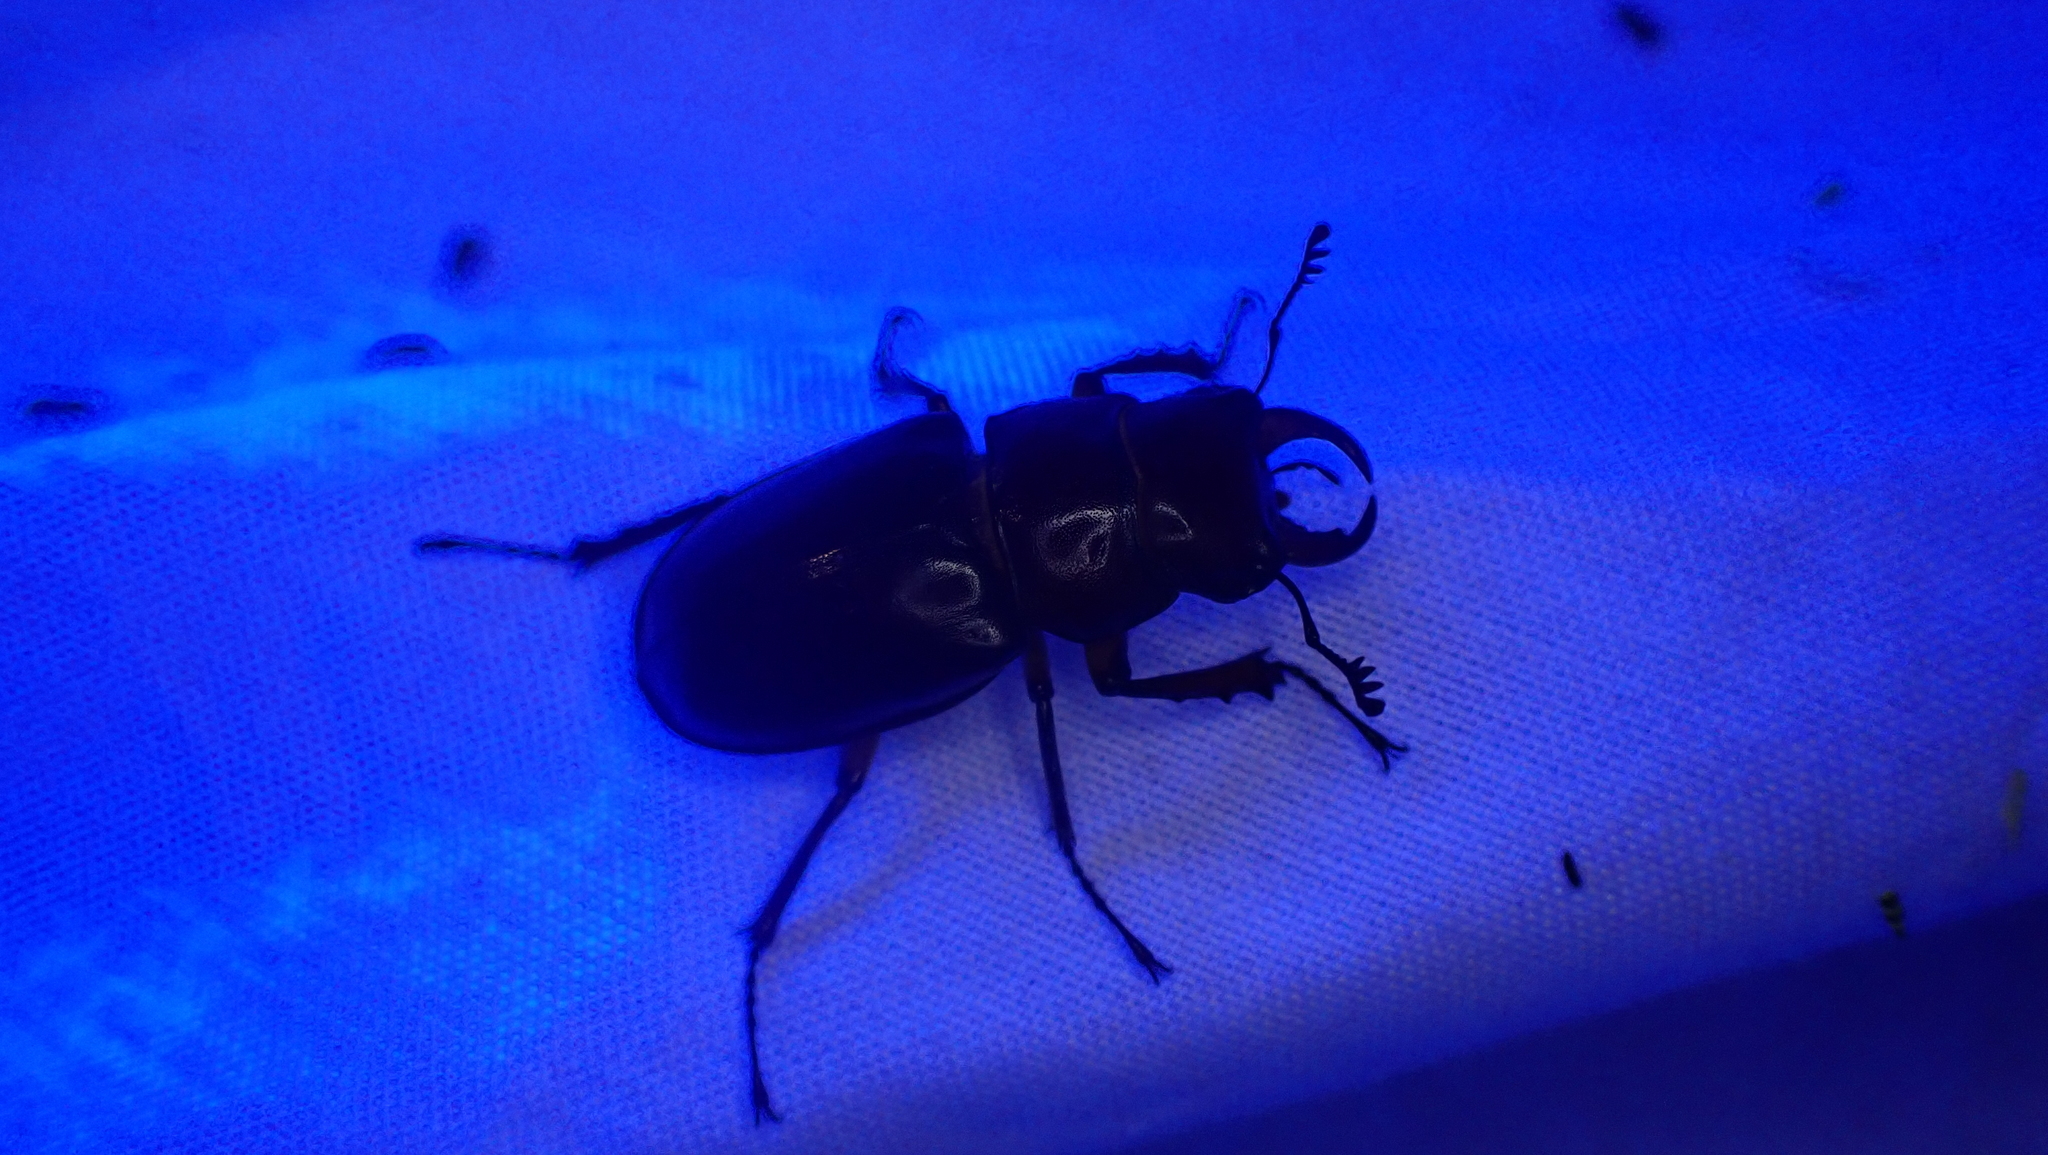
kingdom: Animalia
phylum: Arthropoda
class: Insecta
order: Coleoptera
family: Lucanidae
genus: Lucanus
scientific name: Lucanus capreolus
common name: Stag beetle
